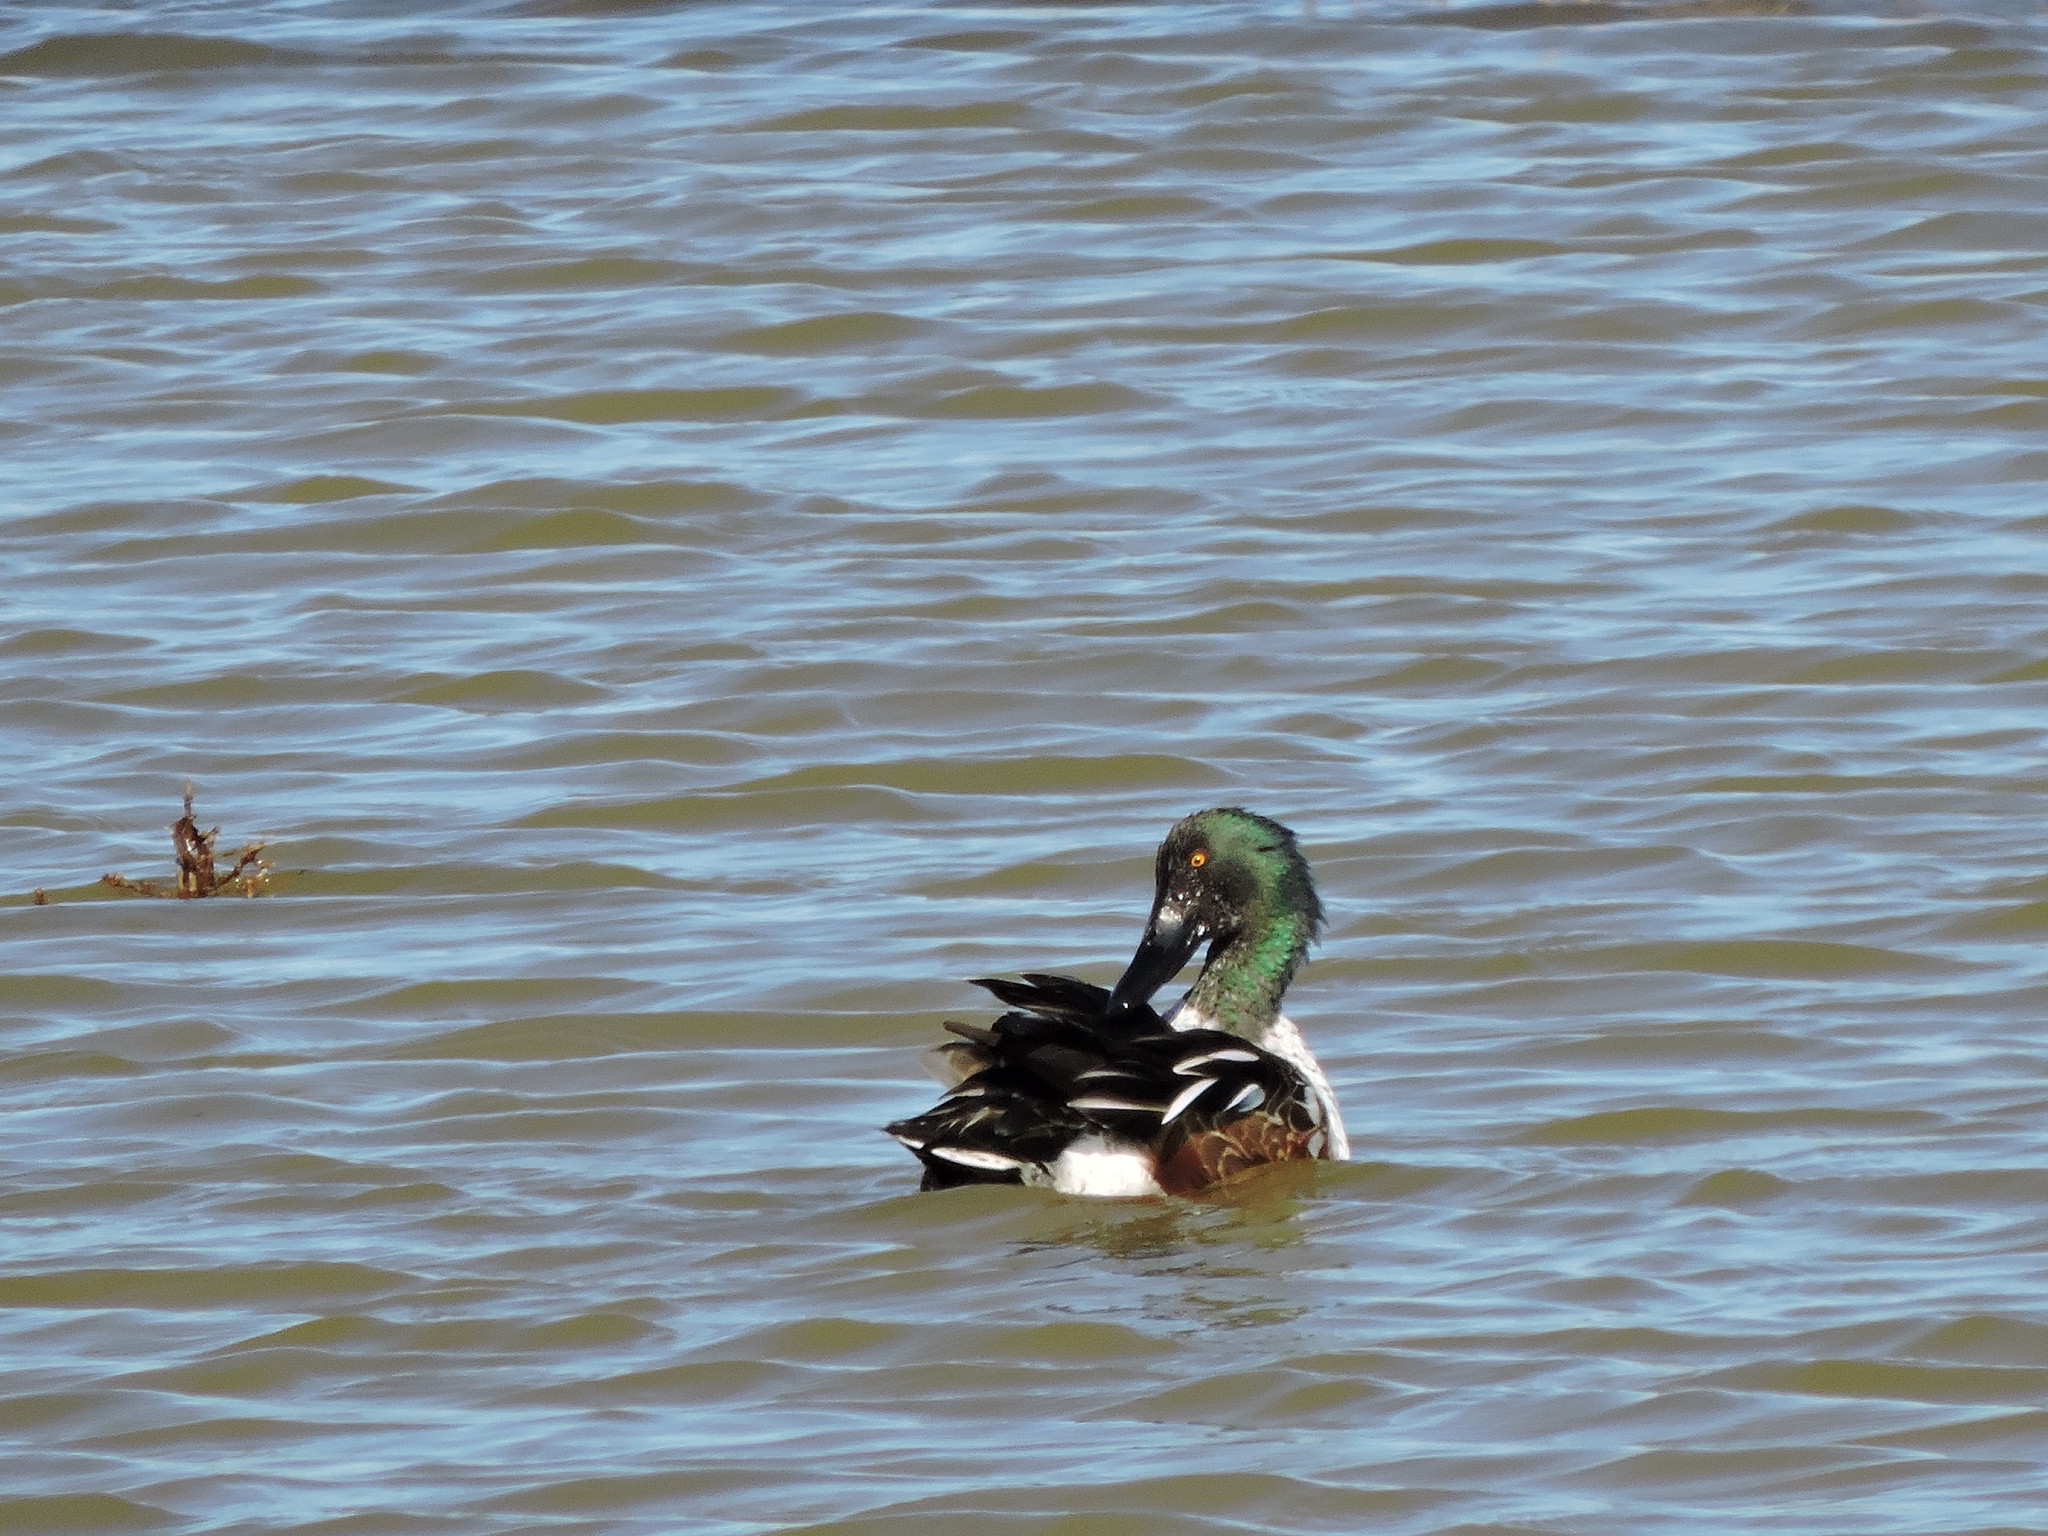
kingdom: Animalia
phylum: Chordata
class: Aves
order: Anseriformes
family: Anatidae
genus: Spatula
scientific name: Spatula clypeata
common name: Northern shoveler
